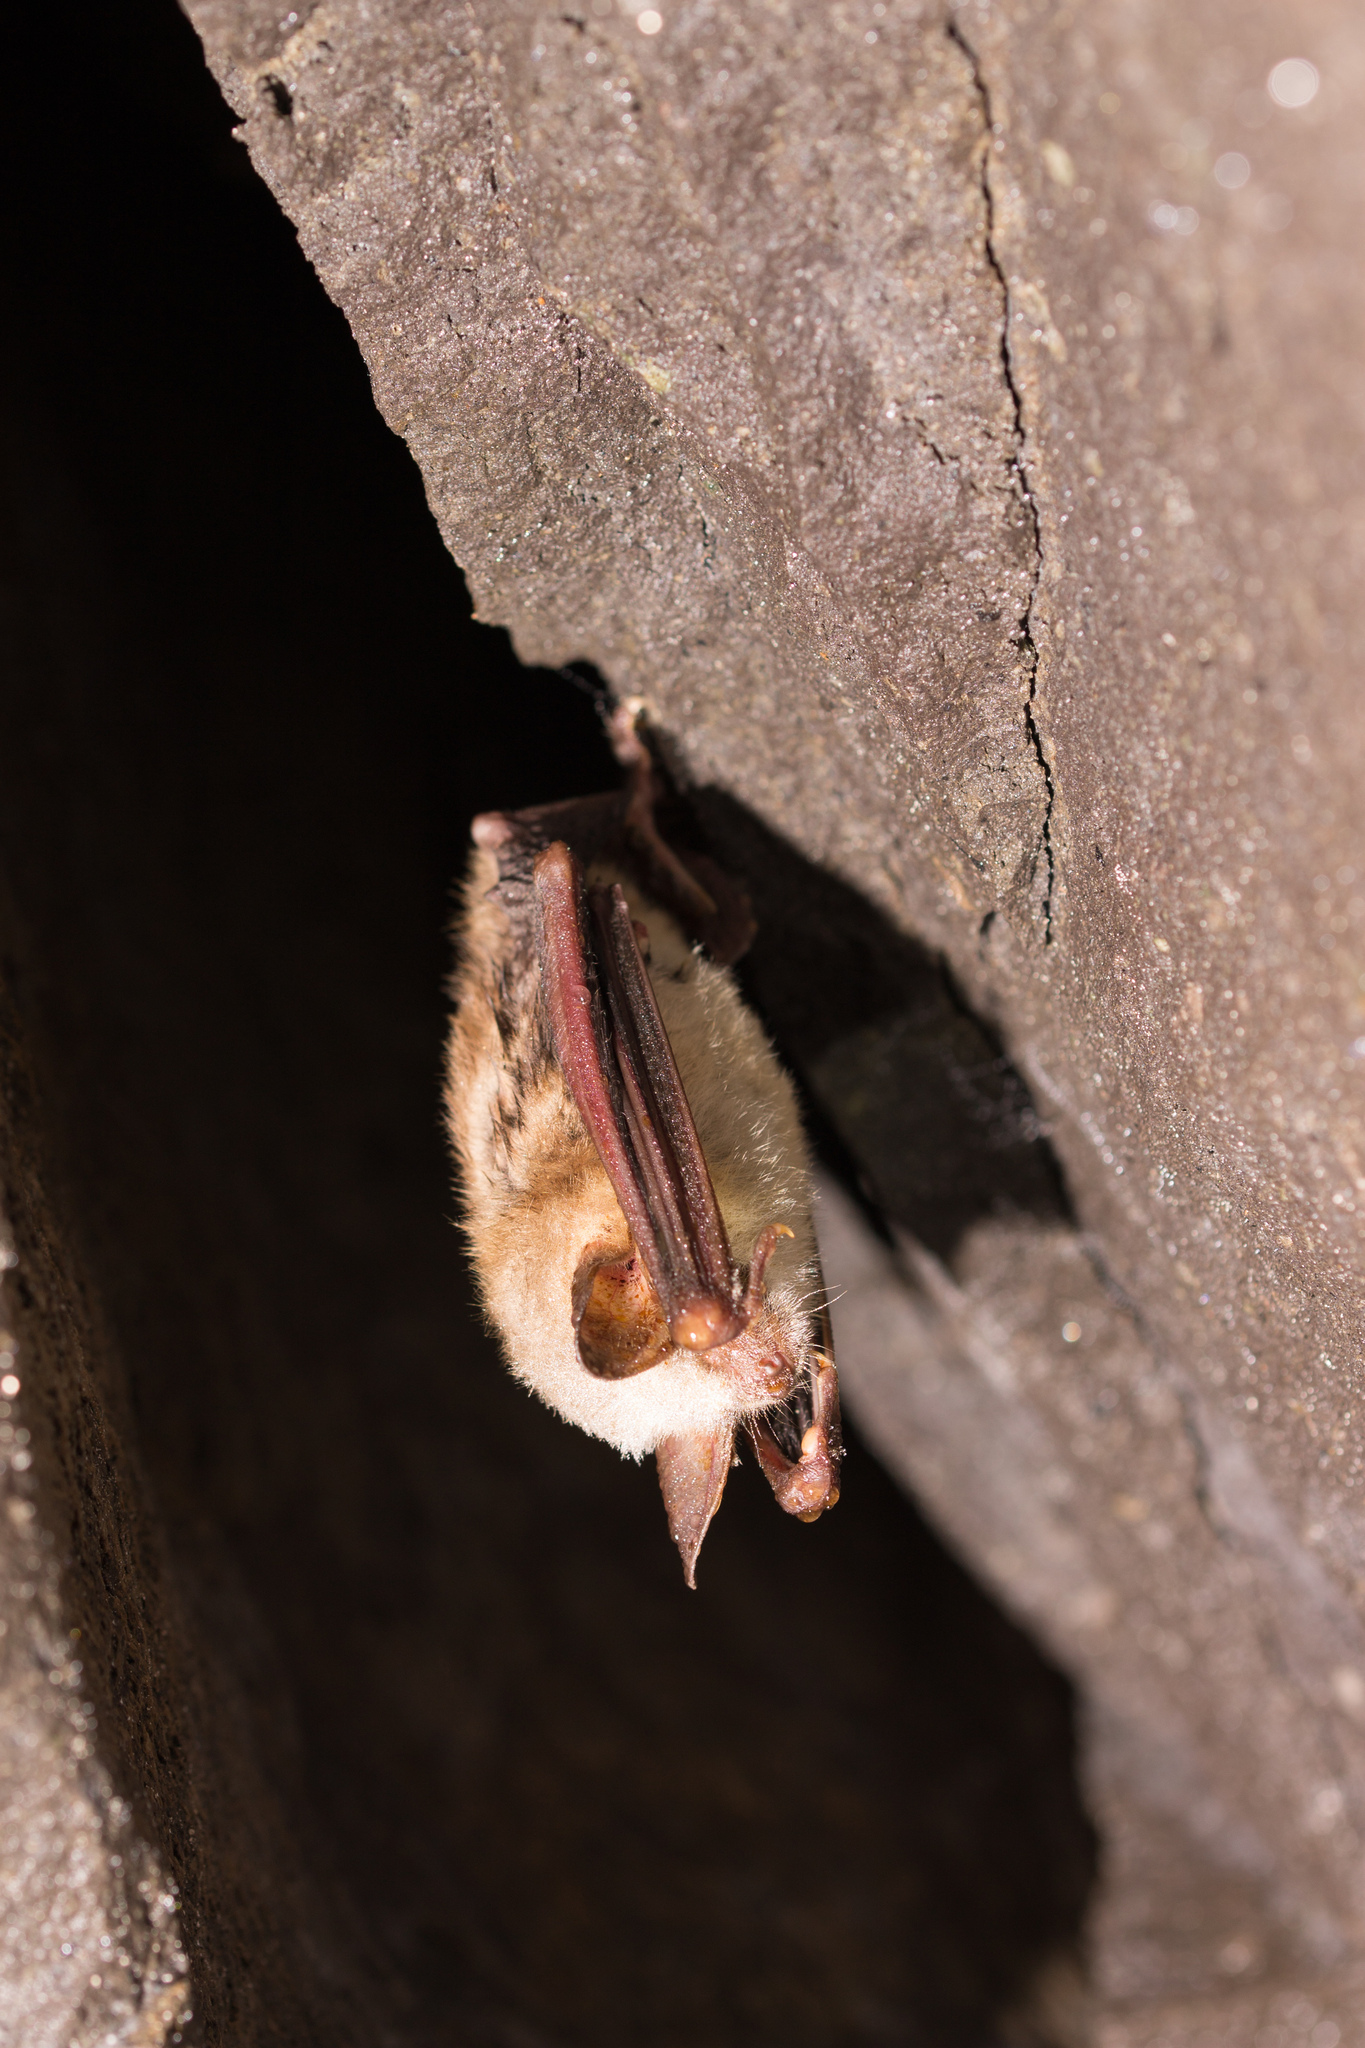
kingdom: Animalia
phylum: Chordata
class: Mammalia
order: Chiroptera
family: Vespertilionidae
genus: Myotis
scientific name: Myotis myotis
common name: Greater mouse-eared bat
